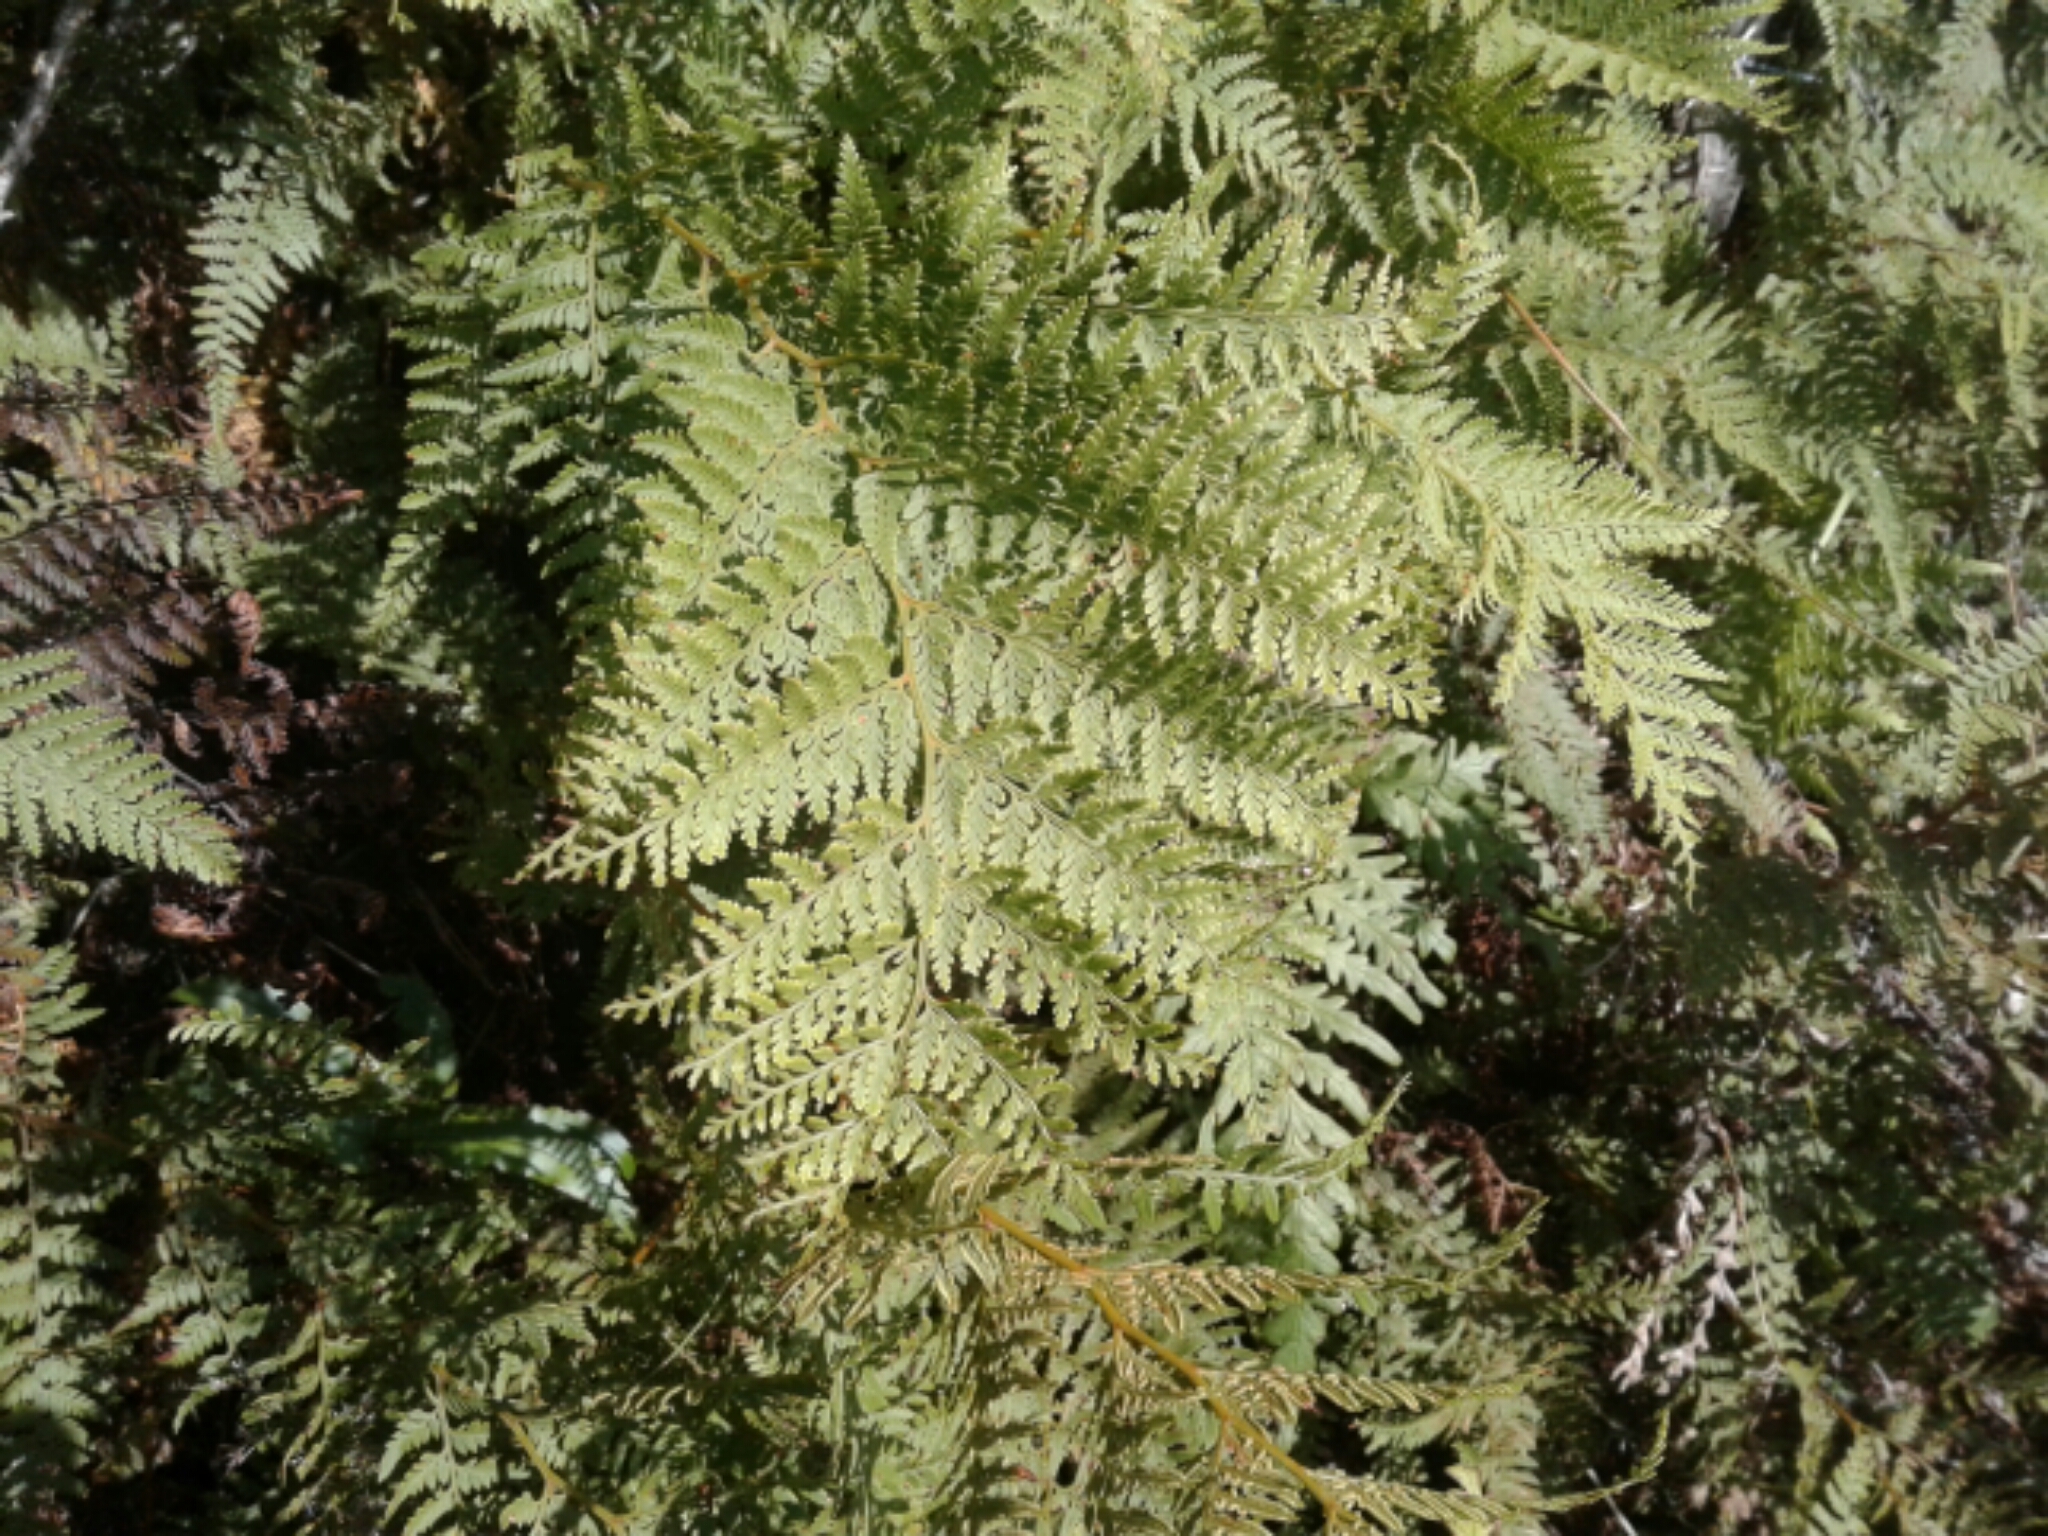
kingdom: Plantae
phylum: Tracheophyta
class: Polypodiopsida
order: Polypodiales
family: Dennstaedtiaceae
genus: Paesia
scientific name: Paesia scaberula
